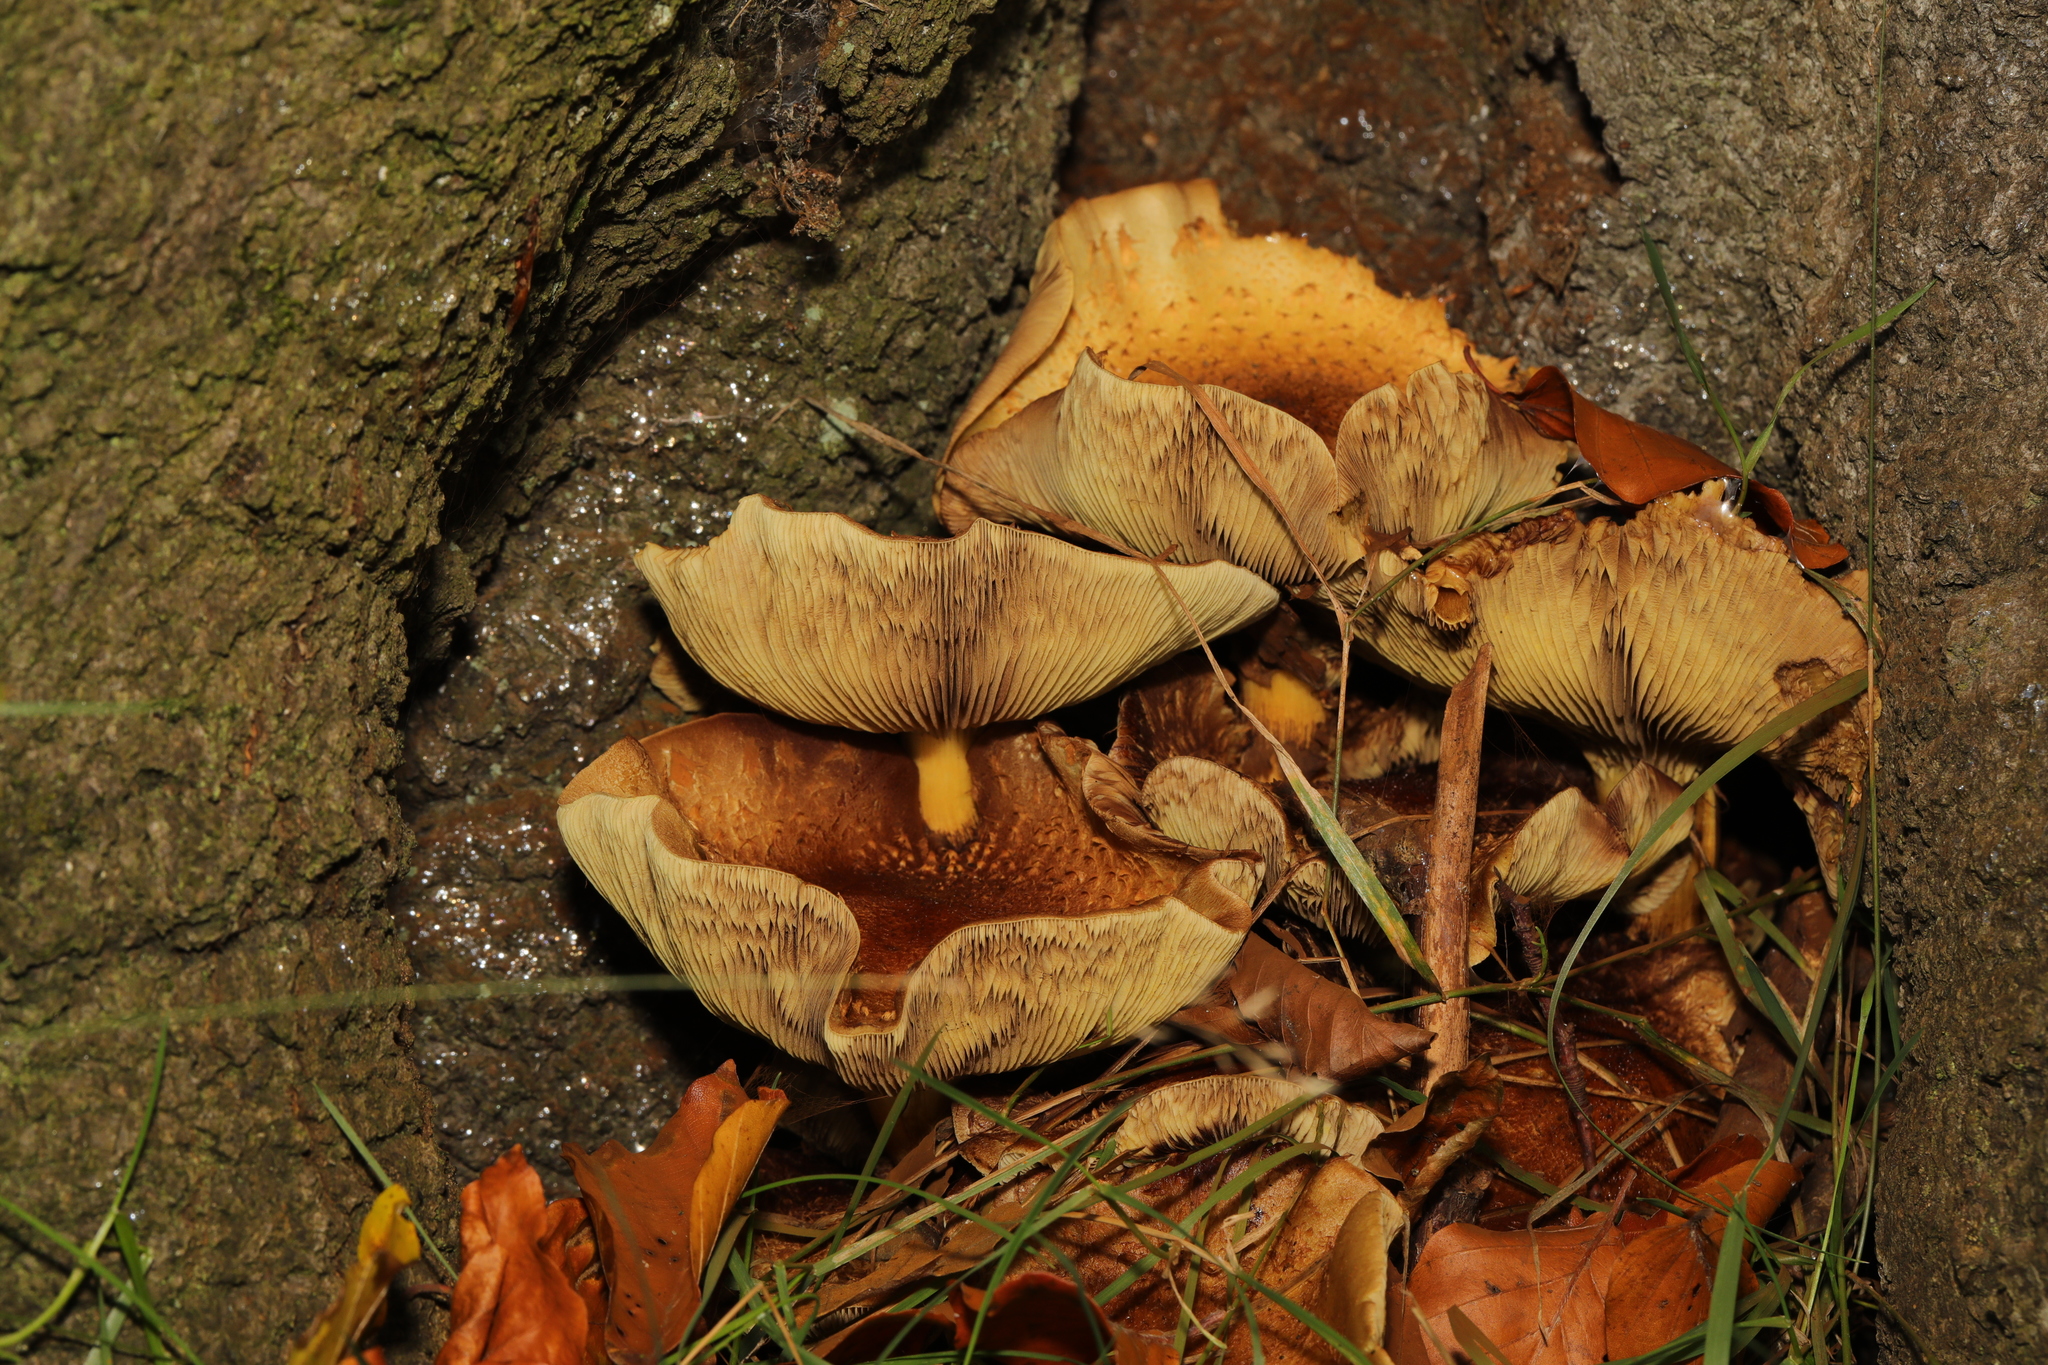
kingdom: Fungi
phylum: Basidiomycota
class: Agaricomycetes
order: Agaricales
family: Strophariaceae
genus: Hypholoma
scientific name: Hypholoma
